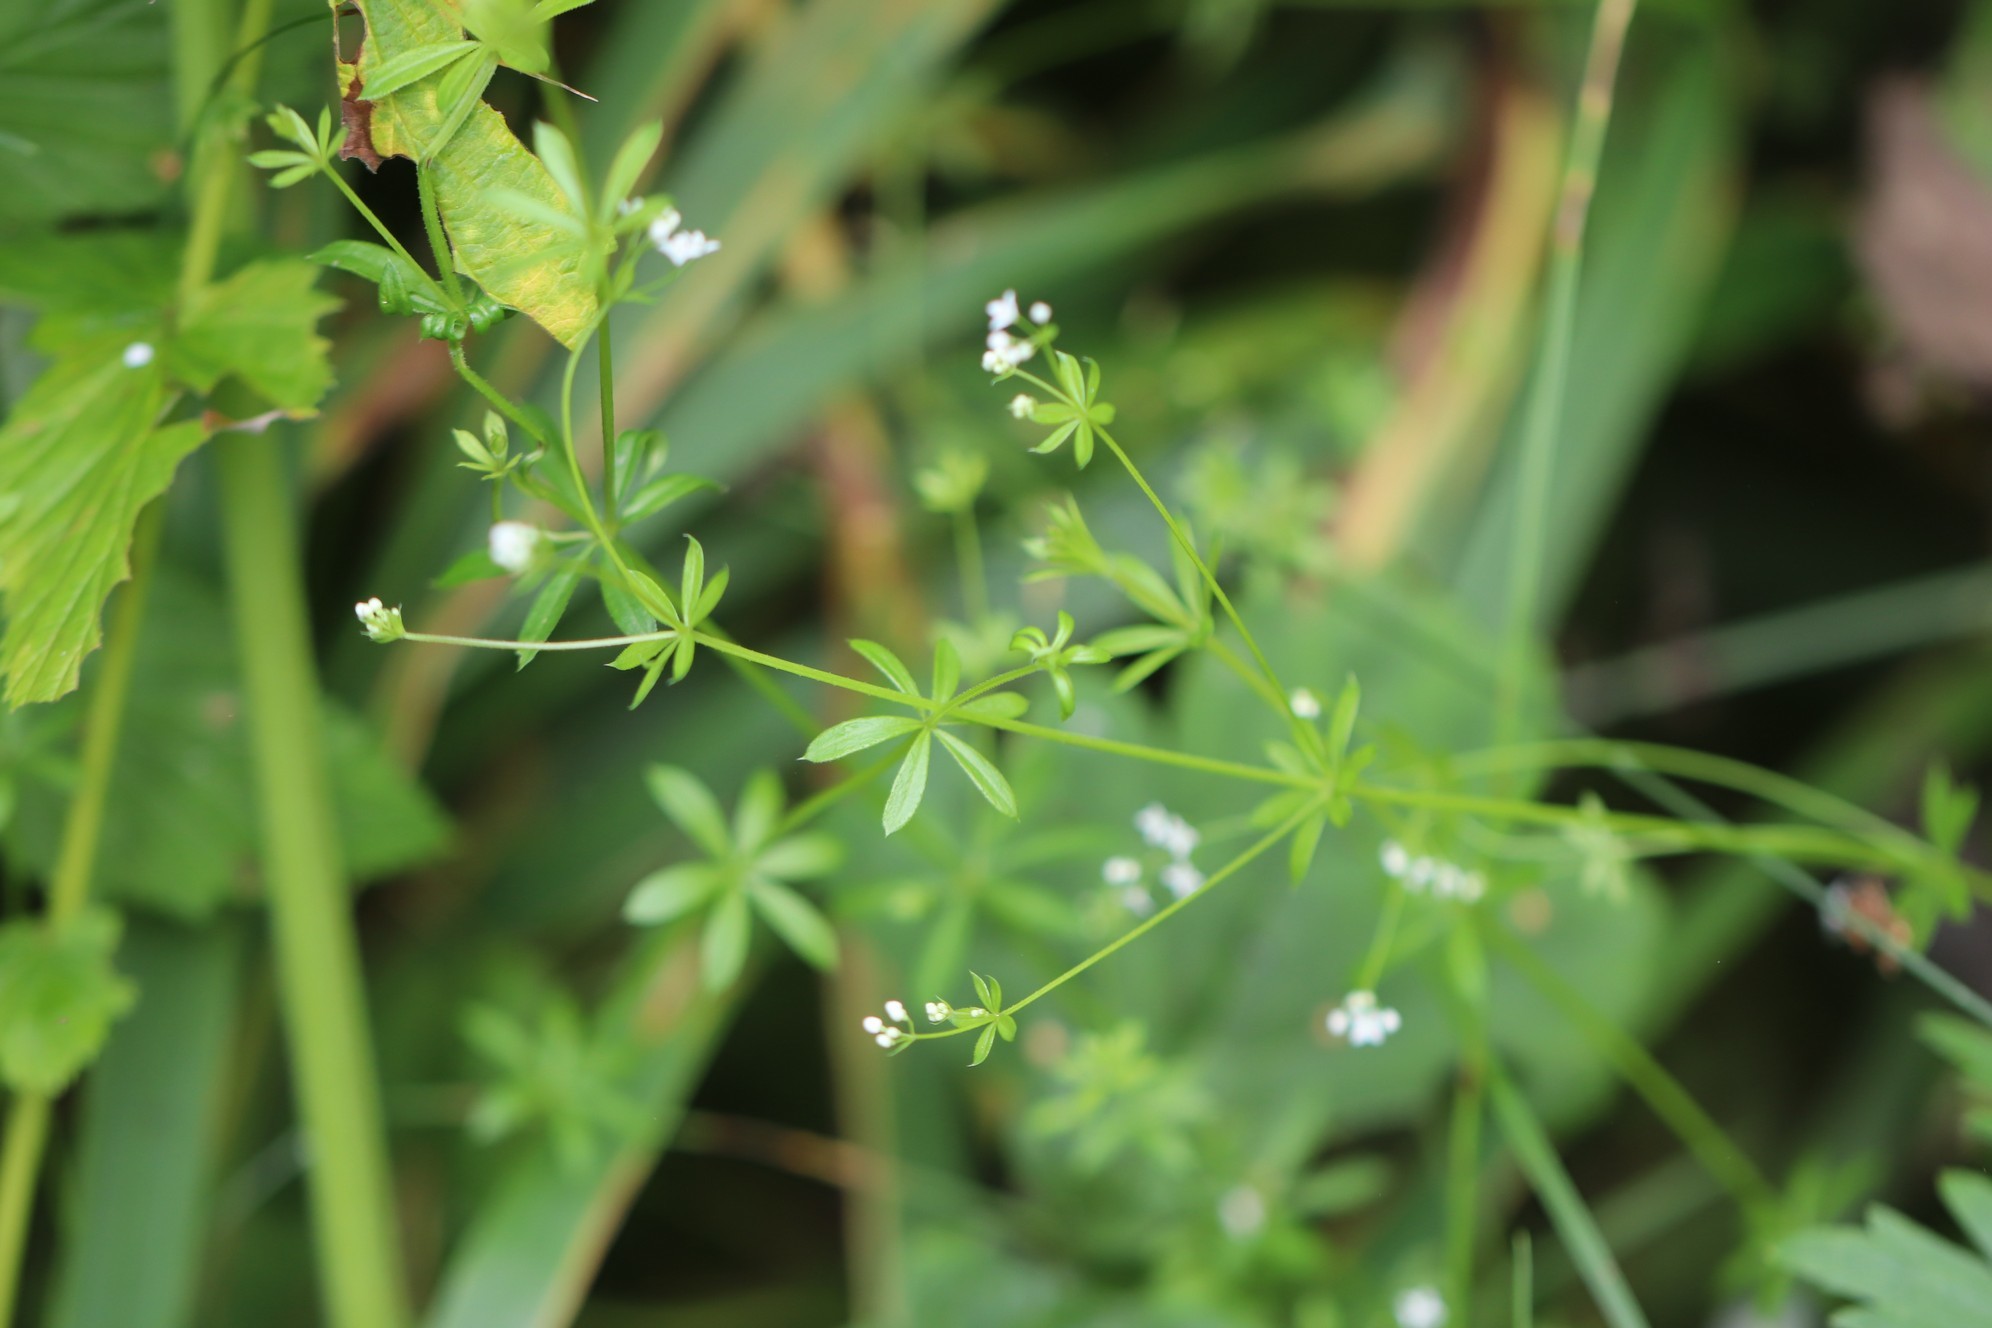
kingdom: Plantae
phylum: Tracheophyta
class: Magnoliopsida
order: Gentianales
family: Rubiaceae
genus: Galium
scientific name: Galium uliginosum
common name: Fen bedstraw
